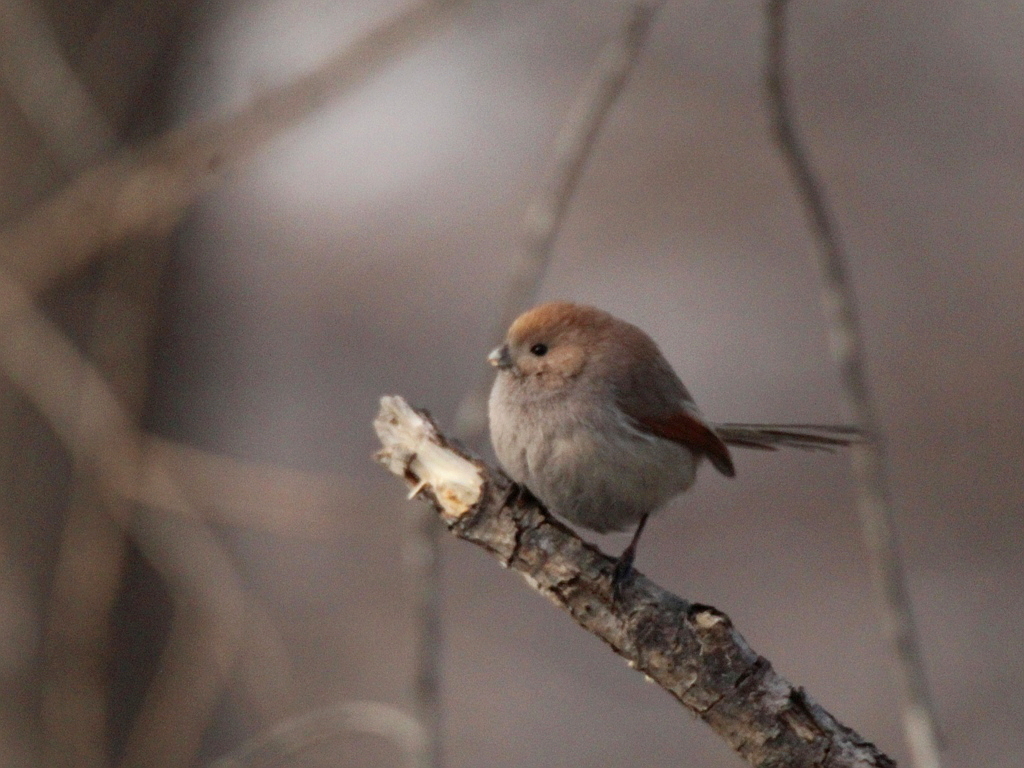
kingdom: Animalia
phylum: Chordata
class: Aves
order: Passeriformes
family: Sylviidae
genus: Sinosuthora
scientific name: Sinosuthora webbiana
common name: Vinous-throated parrotbill
